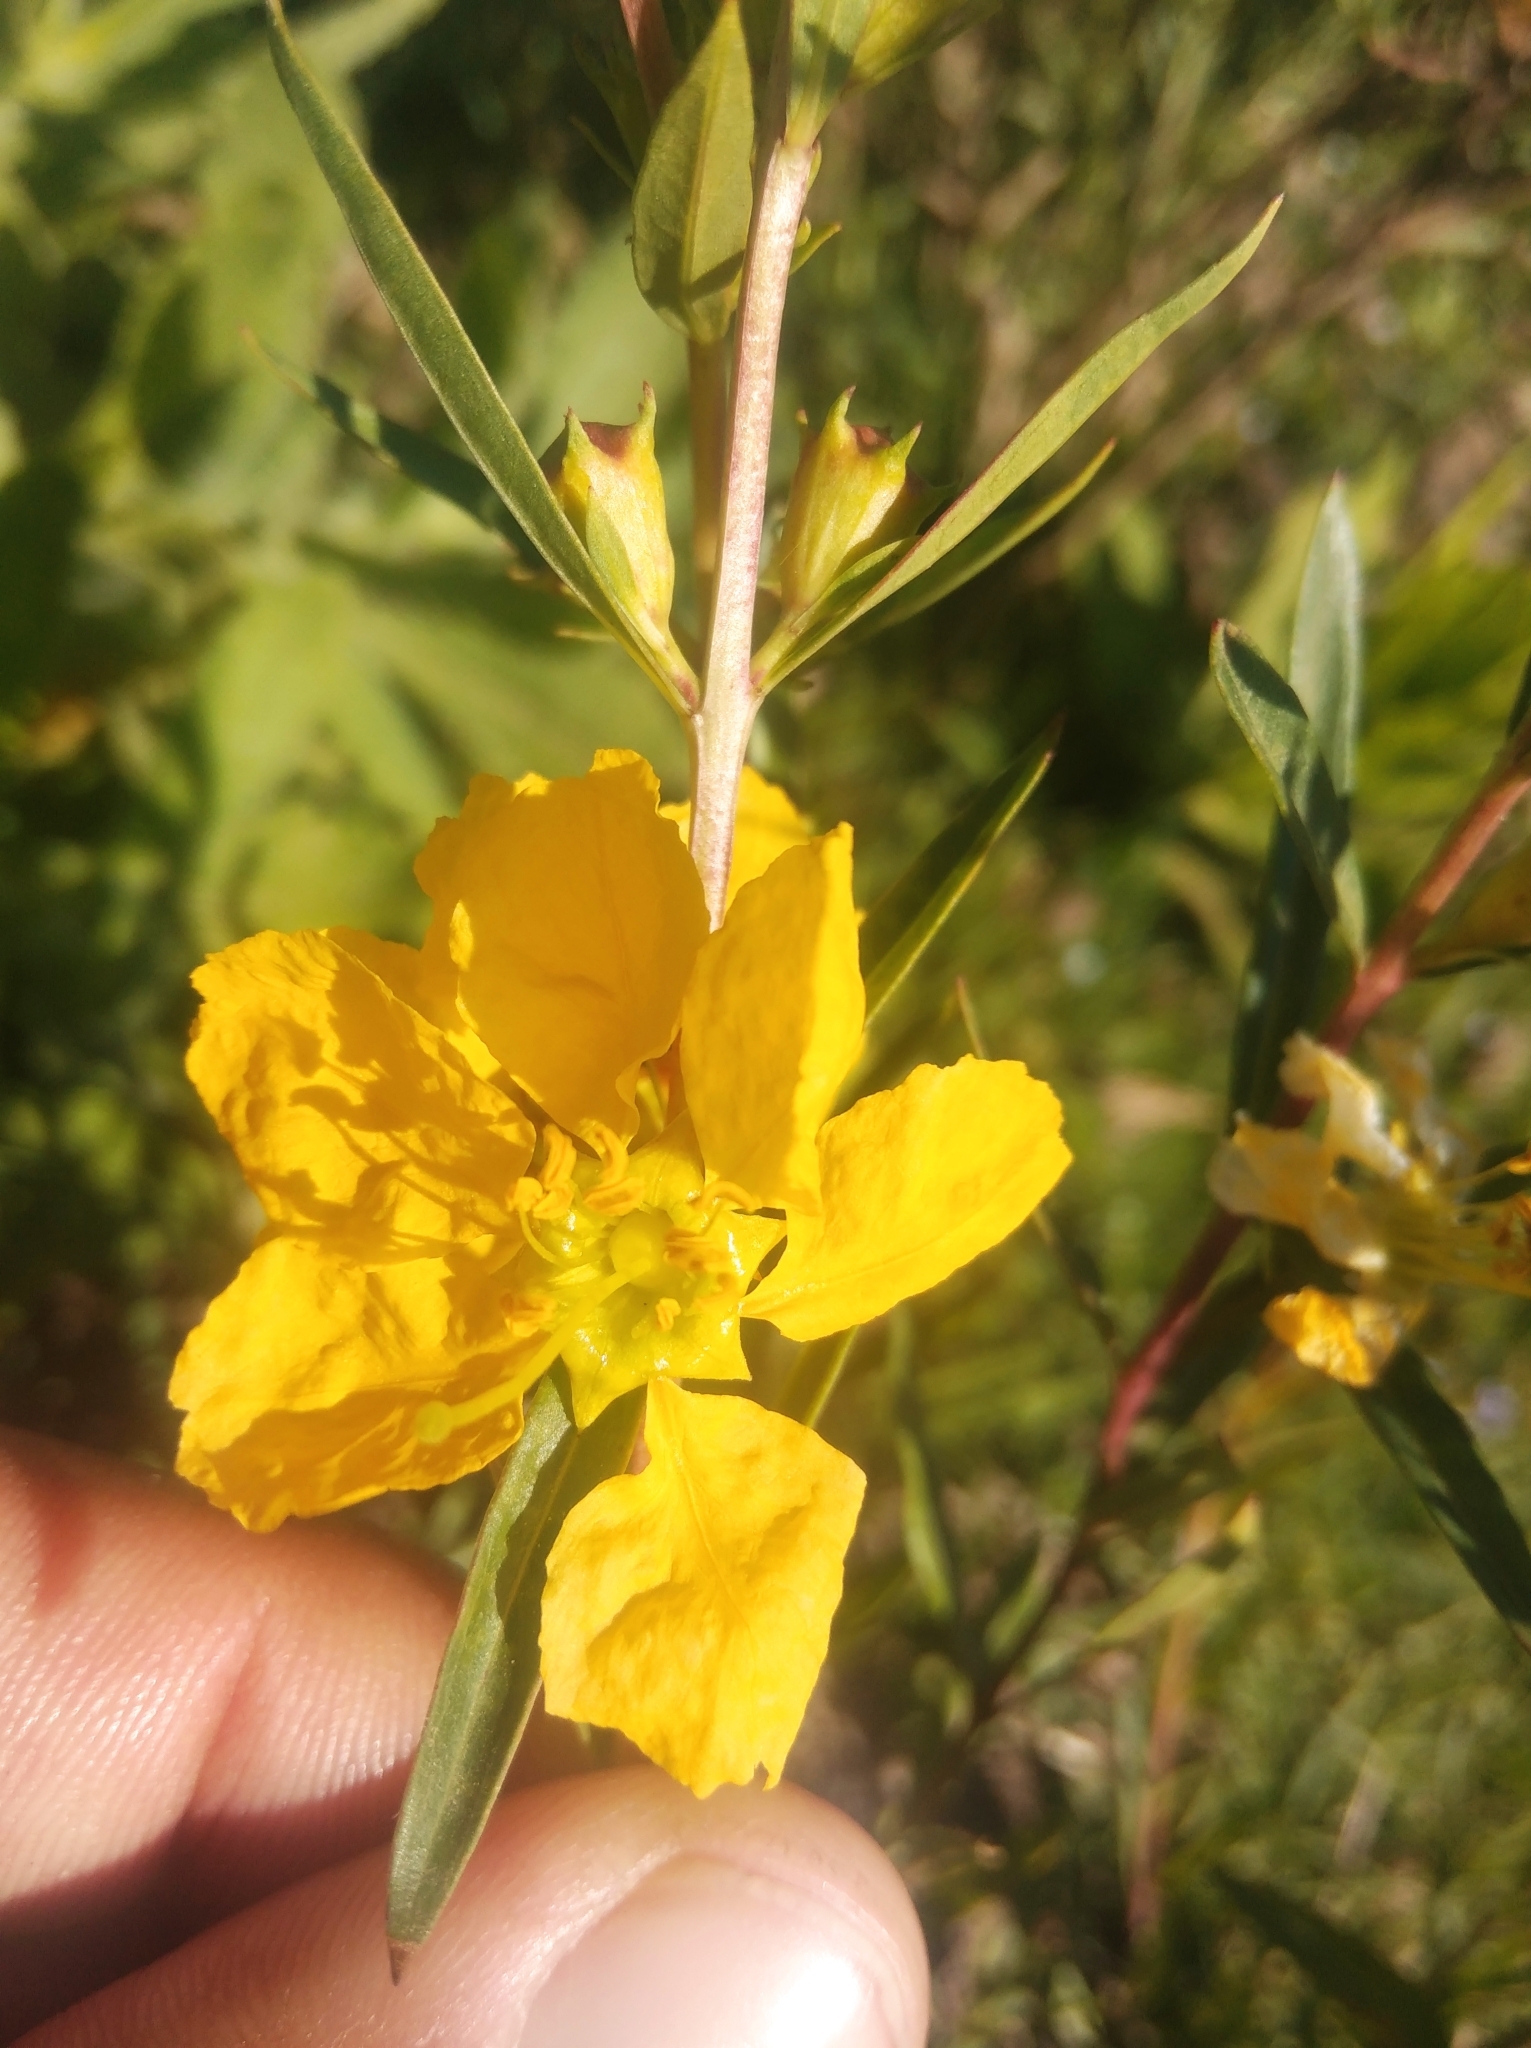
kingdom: Plantae
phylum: Tracheophyta
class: Magnoliopsida
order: Myrtales
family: Lythraceae
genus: Heimia
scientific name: Heimia salicifolia
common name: Willow-leaf heimia
